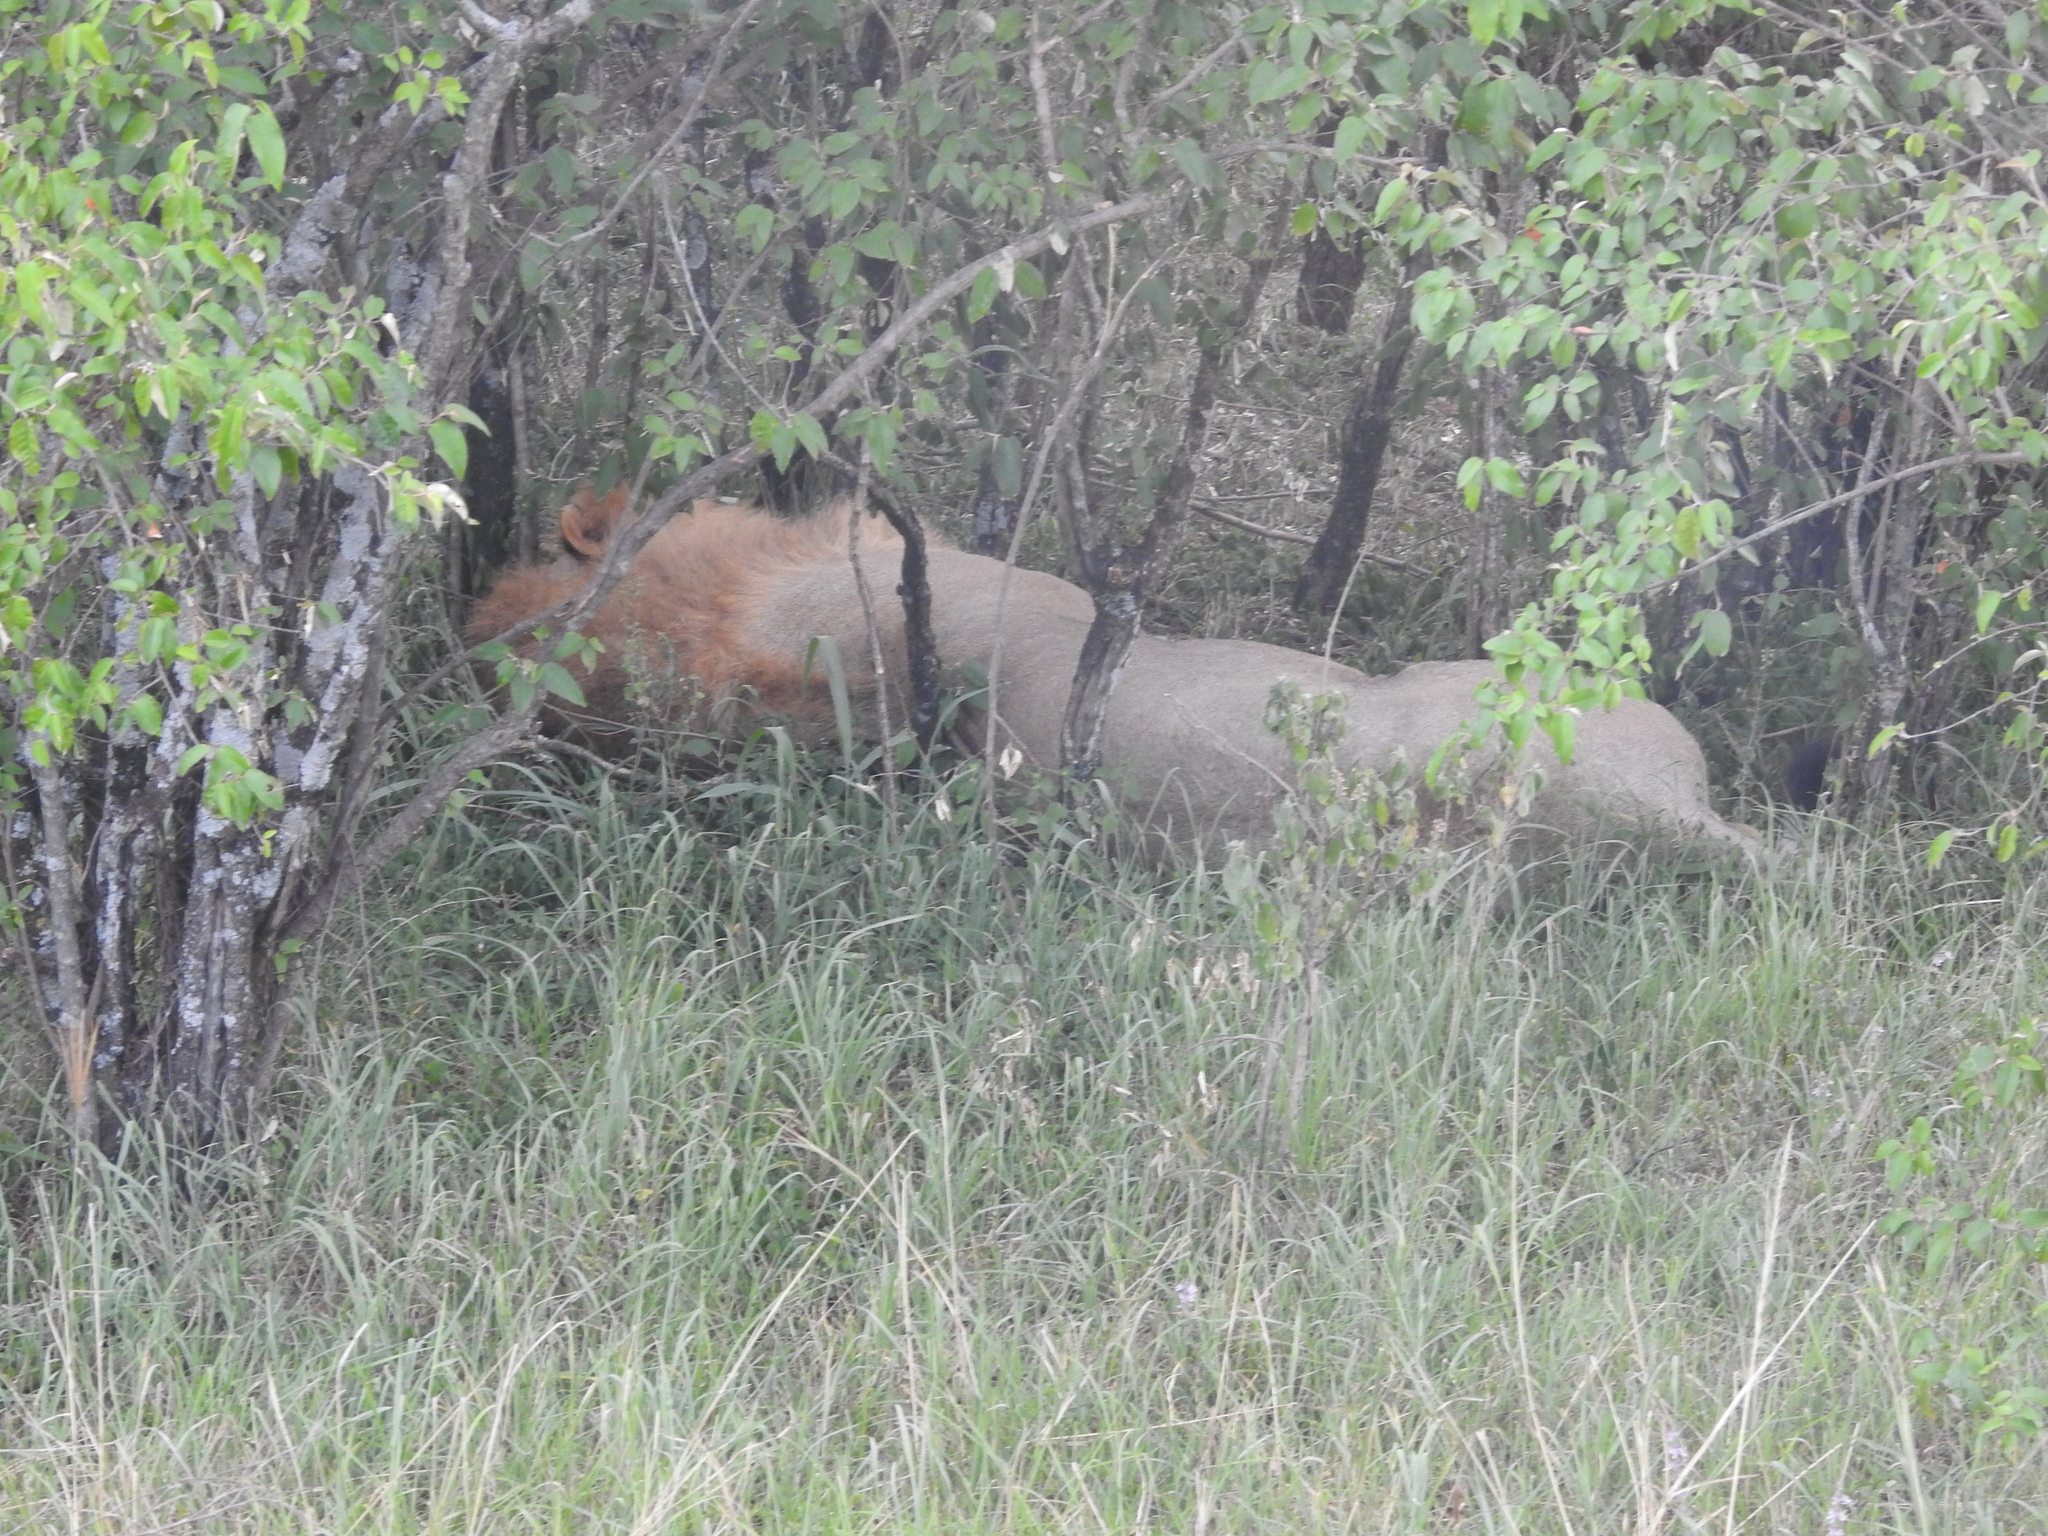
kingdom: Animalia
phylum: Chordata
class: Mammalia
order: Carnivora
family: Felidae
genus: Panthera
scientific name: Panthera leo
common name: Lion
